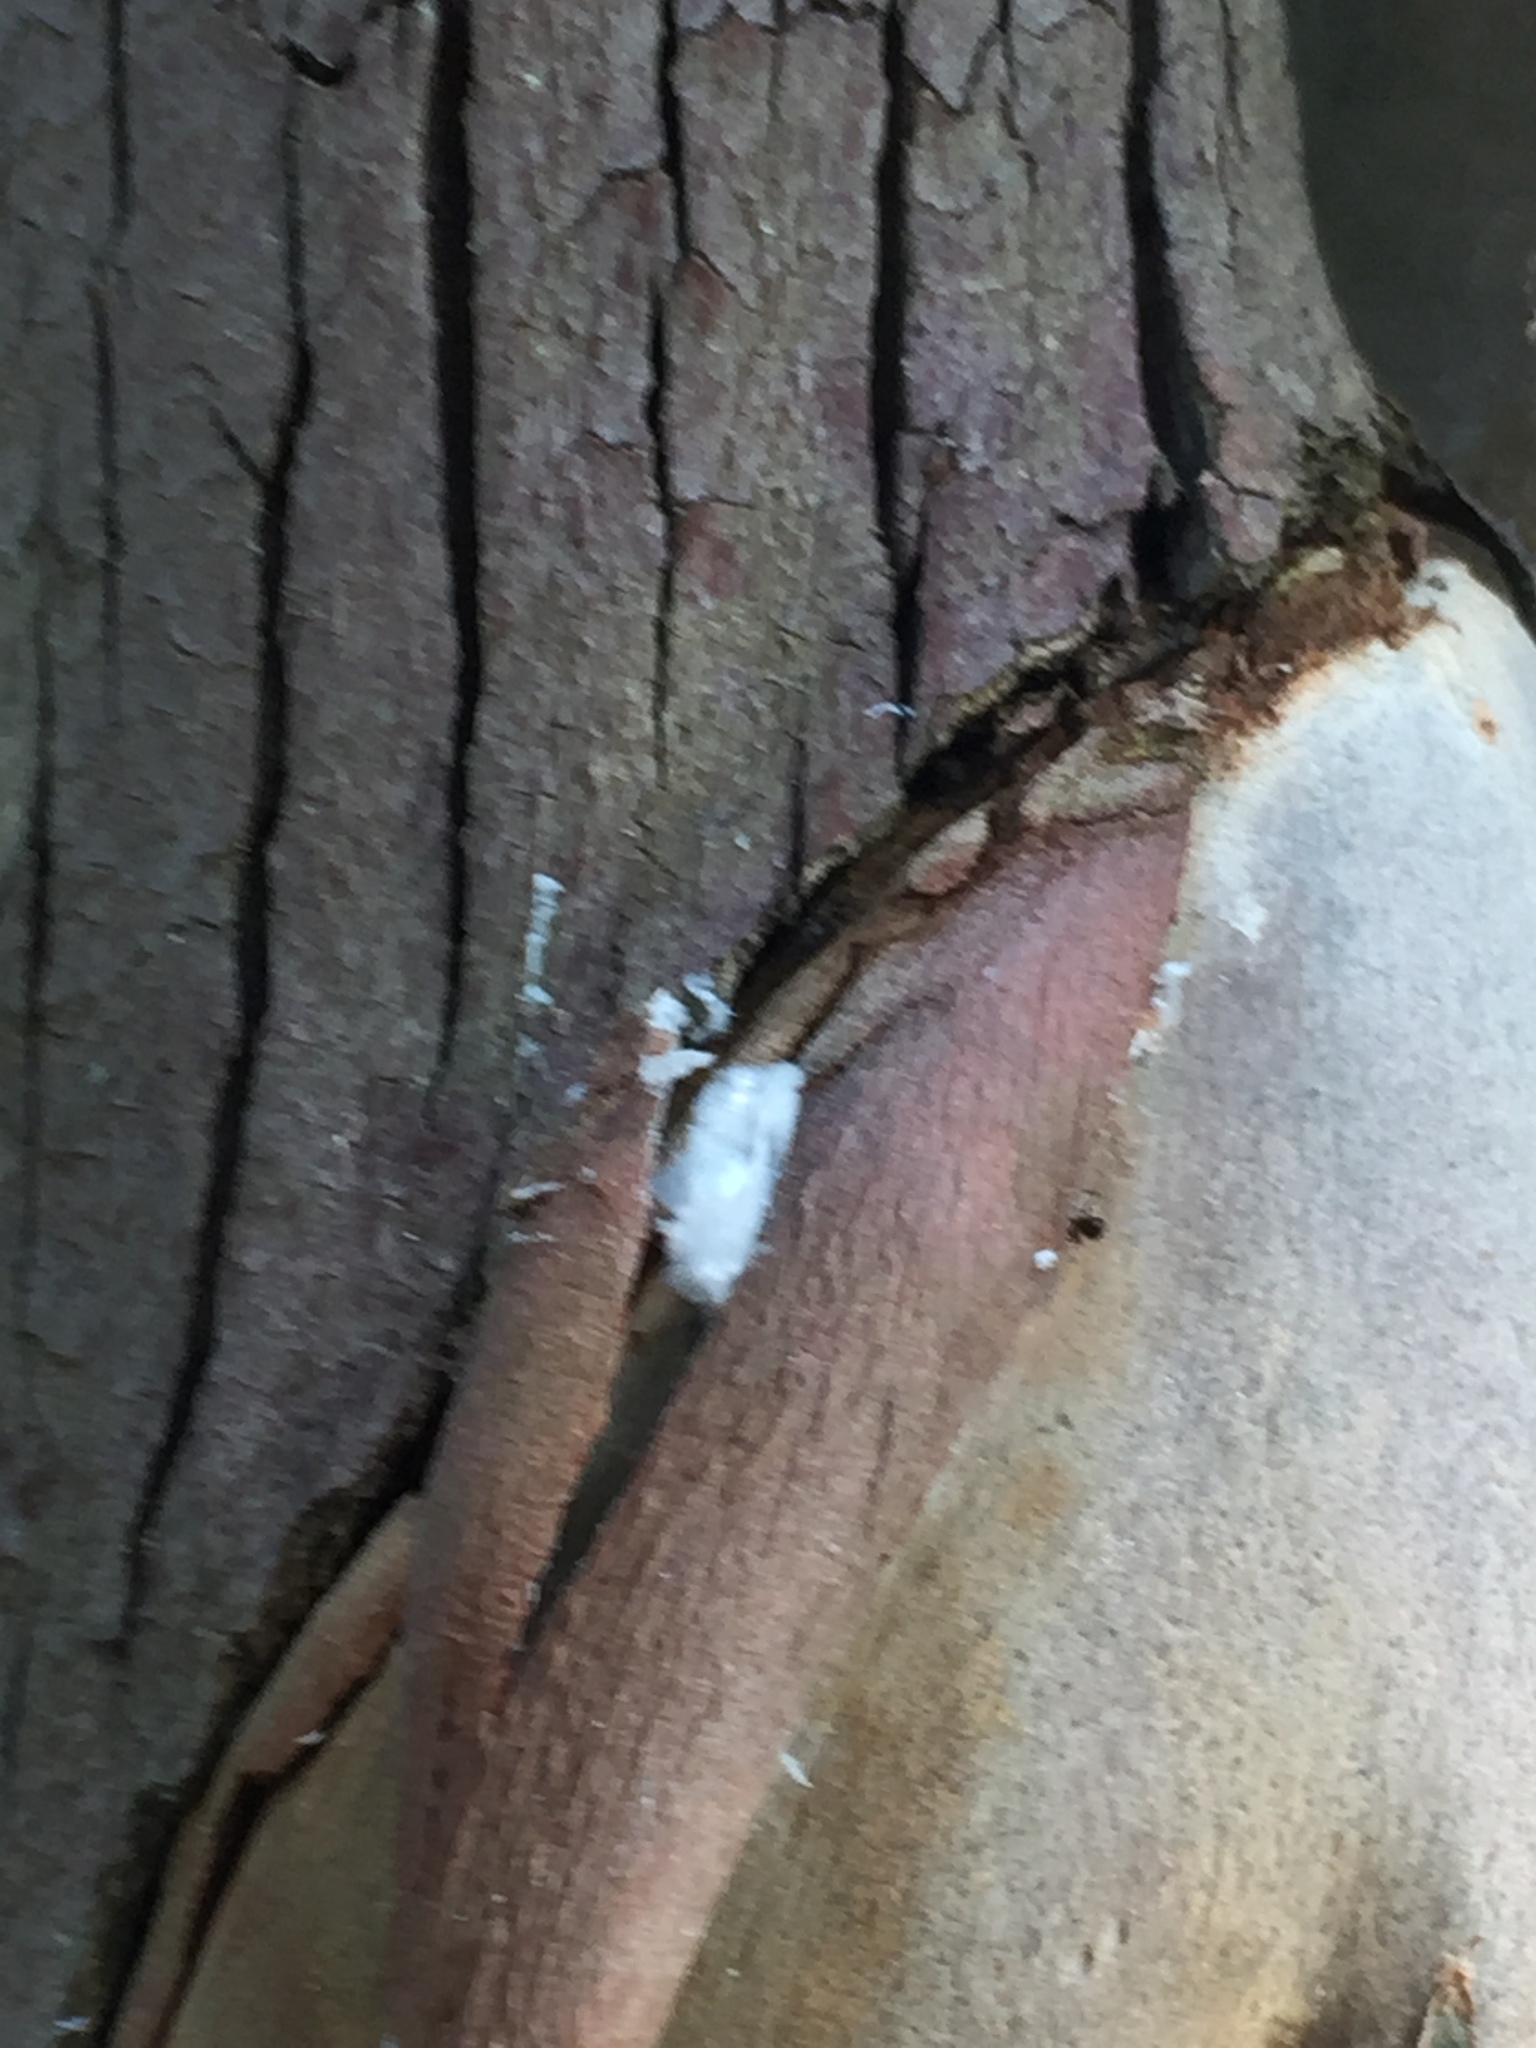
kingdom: Animalia
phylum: Arthropoda
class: Insecta
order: Hemiptera
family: Aphalaridae
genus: Phellopsylla
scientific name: Phellopsylla formicosa
